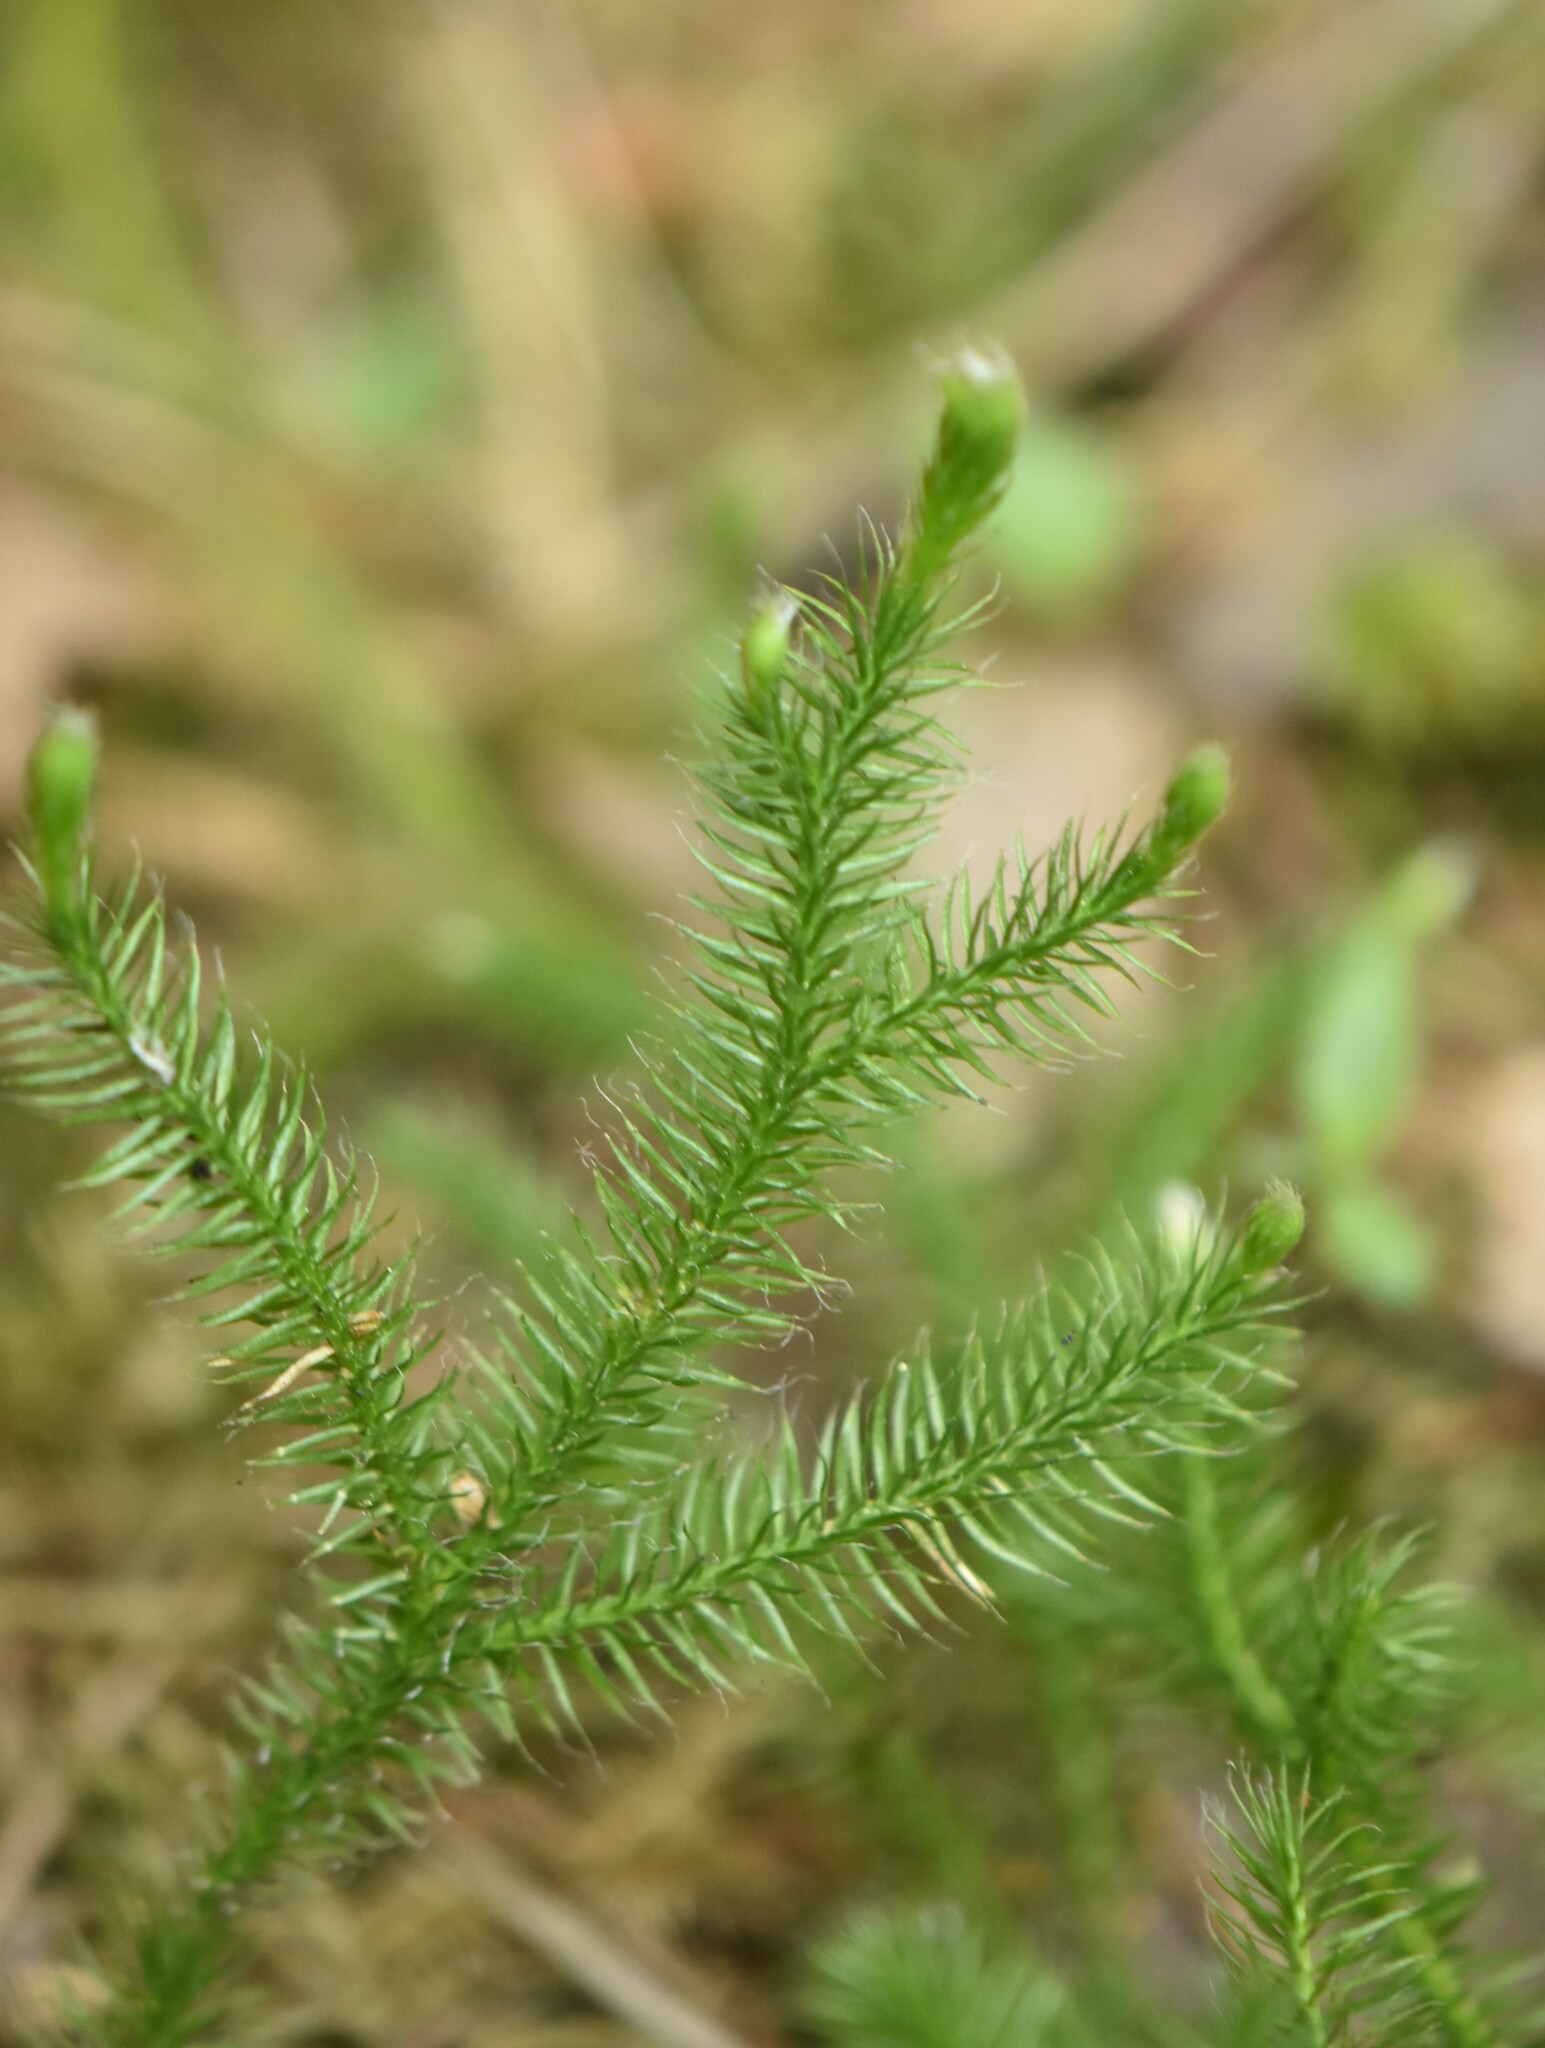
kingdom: Plantae
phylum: Tracheophyta
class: Lycopodiopsida
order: Lycopodiales
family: Lycopodiaceae
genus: Lycopodium
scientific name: Lycopodium clavatum
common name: Stag's-horn clubmoss
